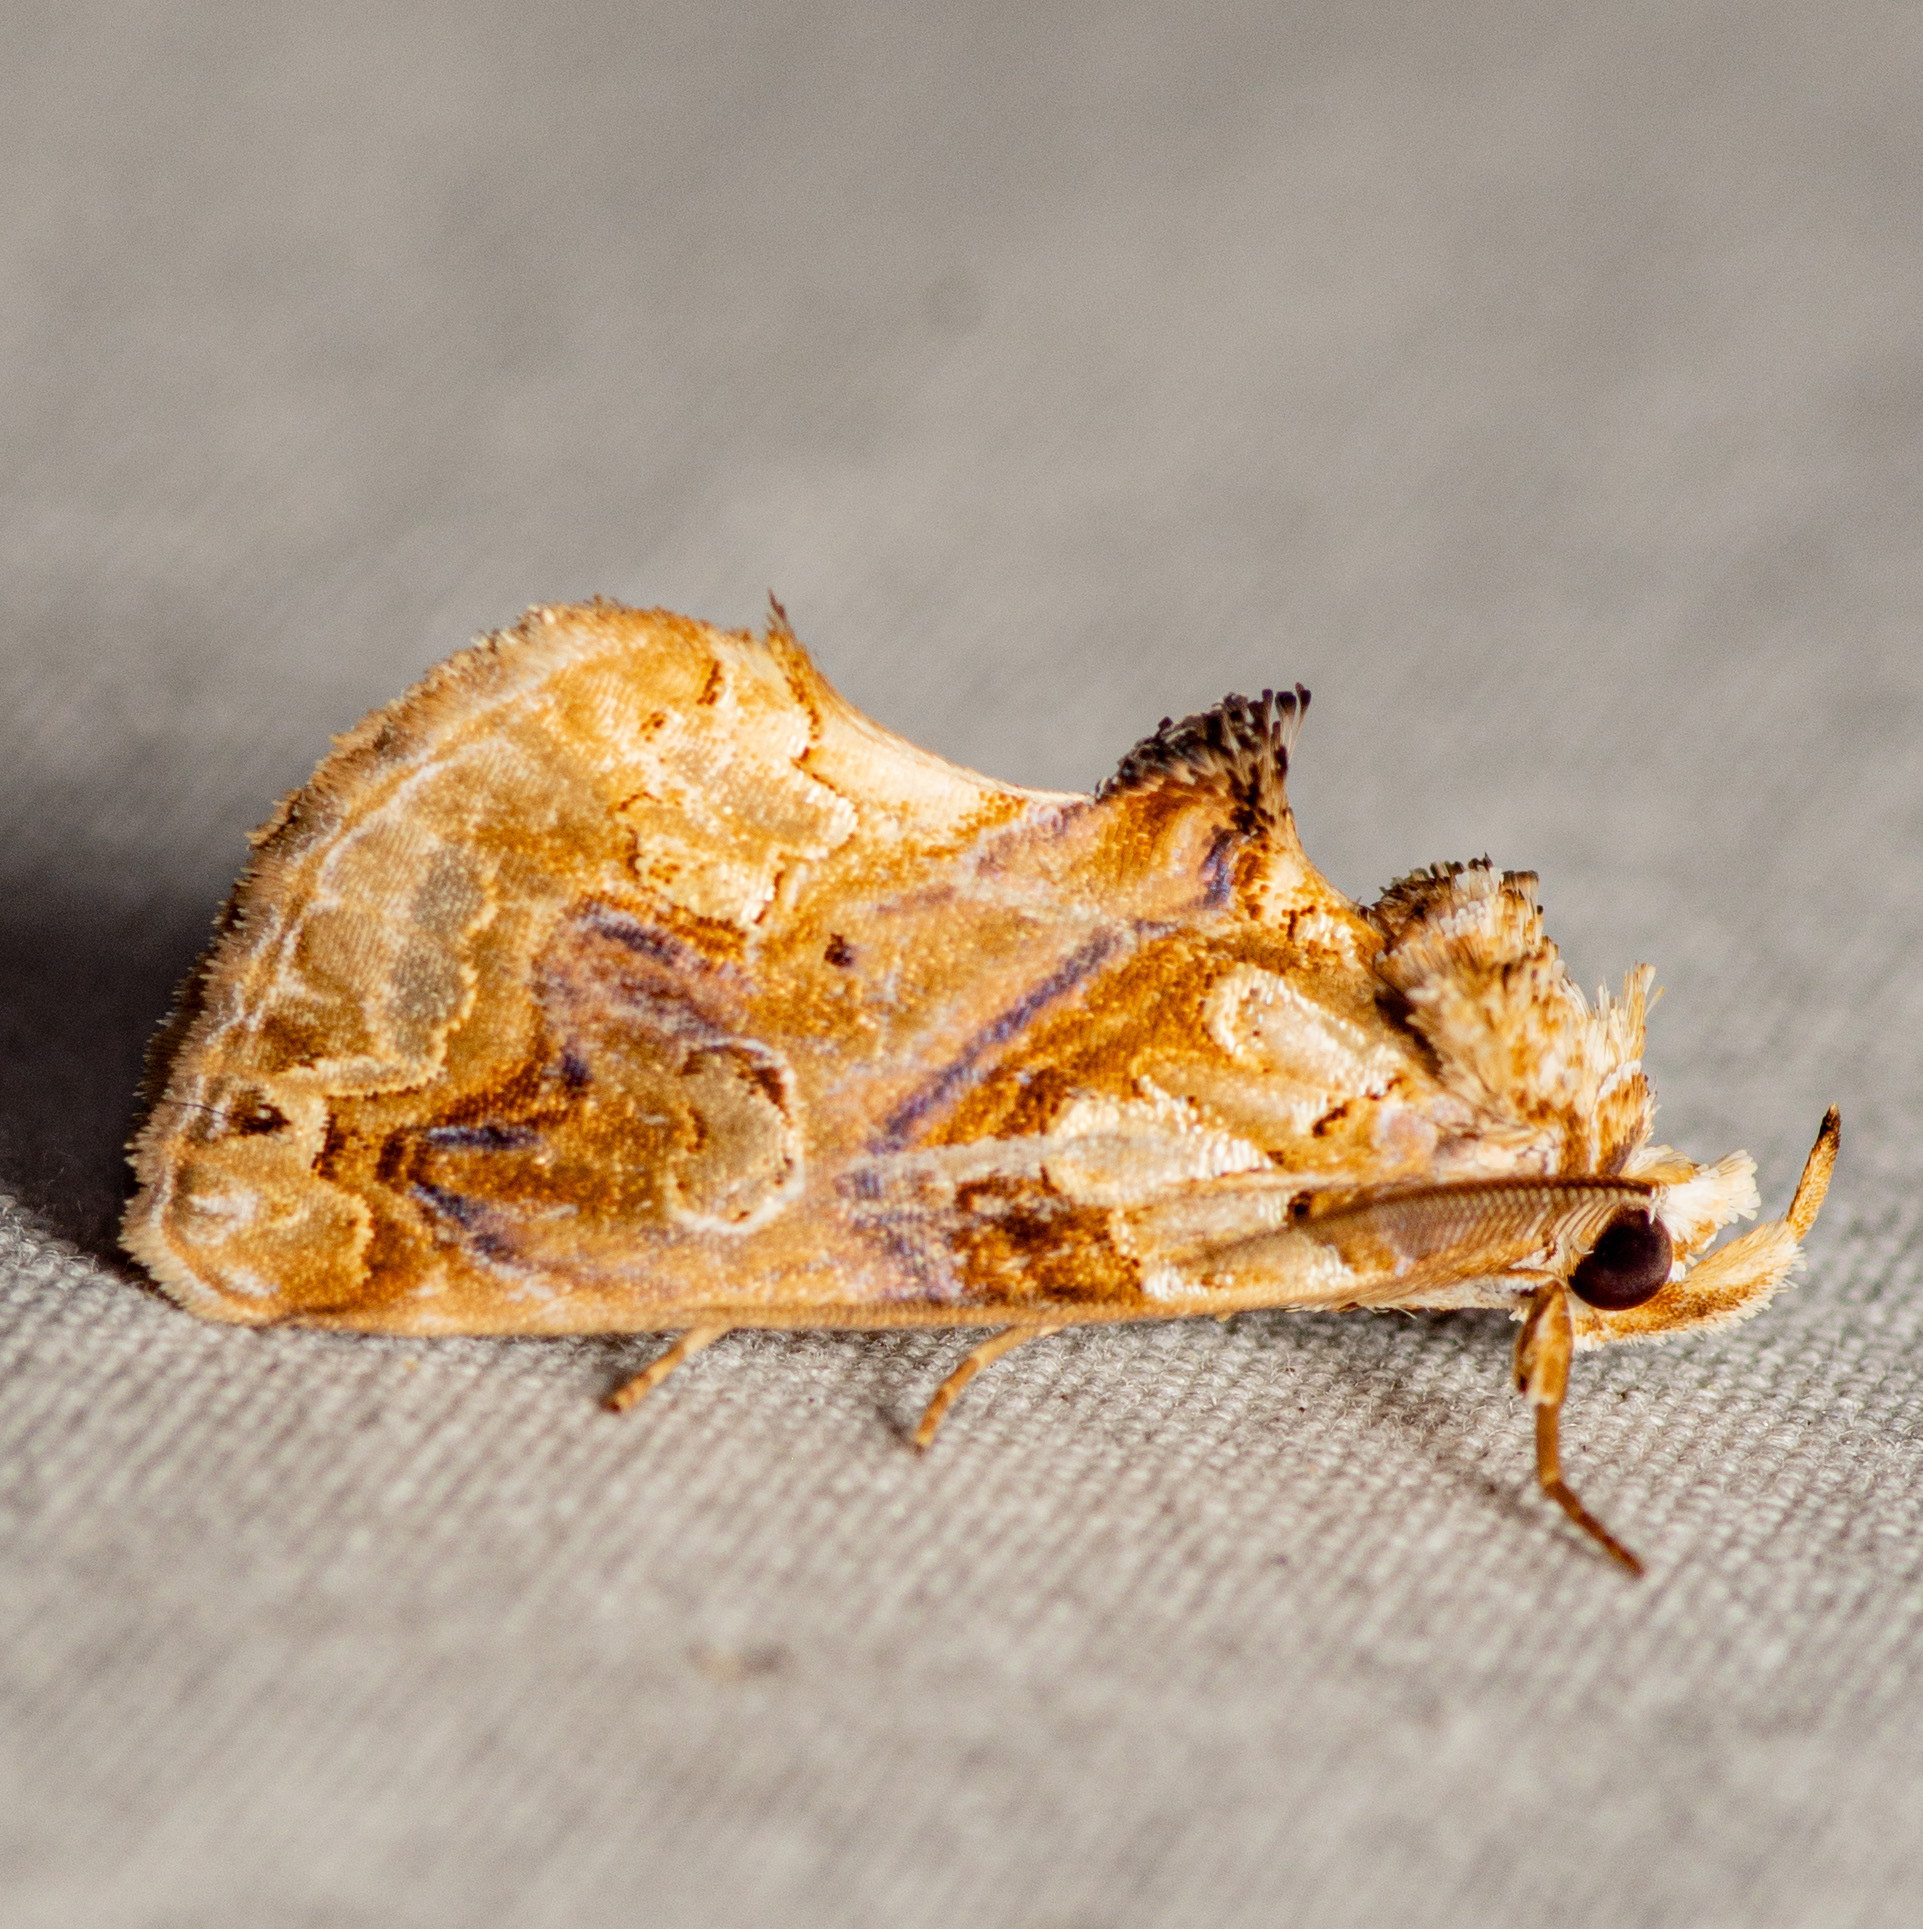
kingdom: Animalia
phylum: Arthropoda
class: Insecta
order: Lepidoptera
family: Erebidae
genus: Plusiodonta
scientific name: Plusiodonta compressipalpis
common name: Moonseed moth
